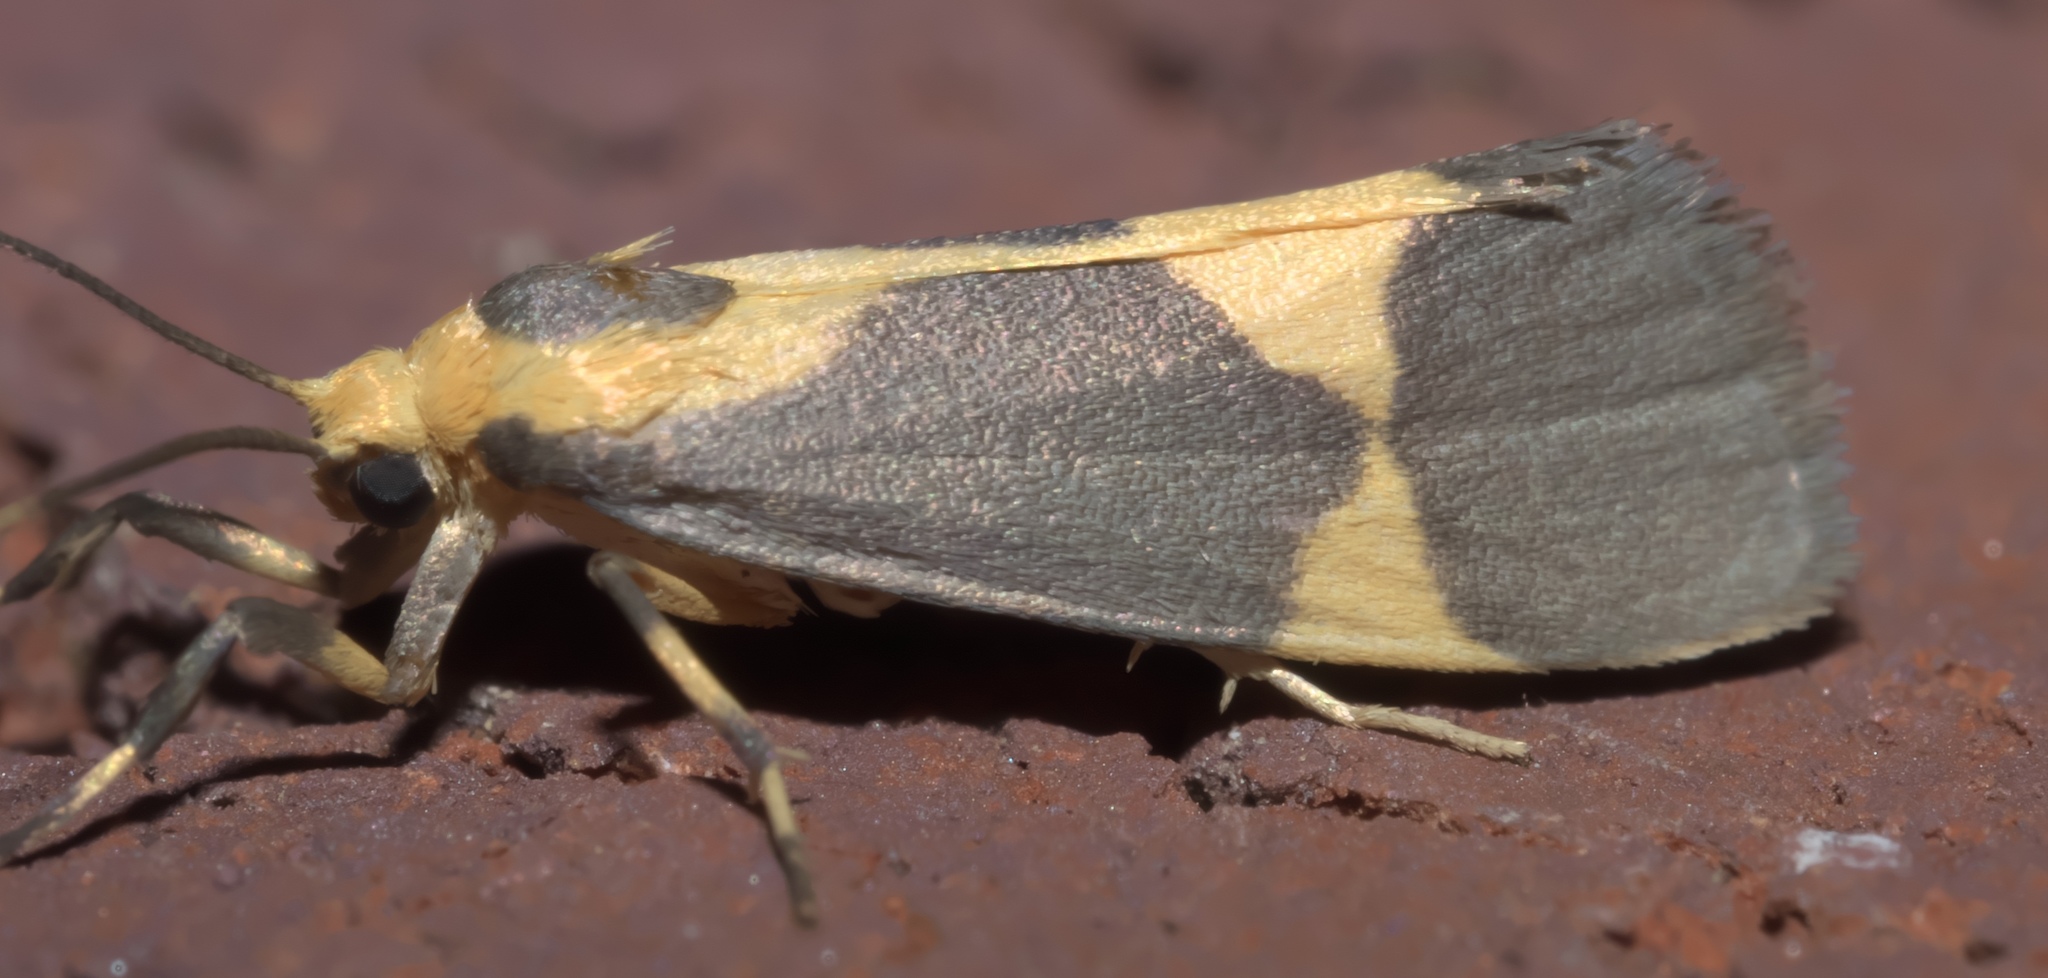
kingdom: Animalia
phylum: Arthropoda
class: Insecta
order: Lepidoptera
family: Erebidae
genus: Cisthene
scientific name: Cisthene unifascia
